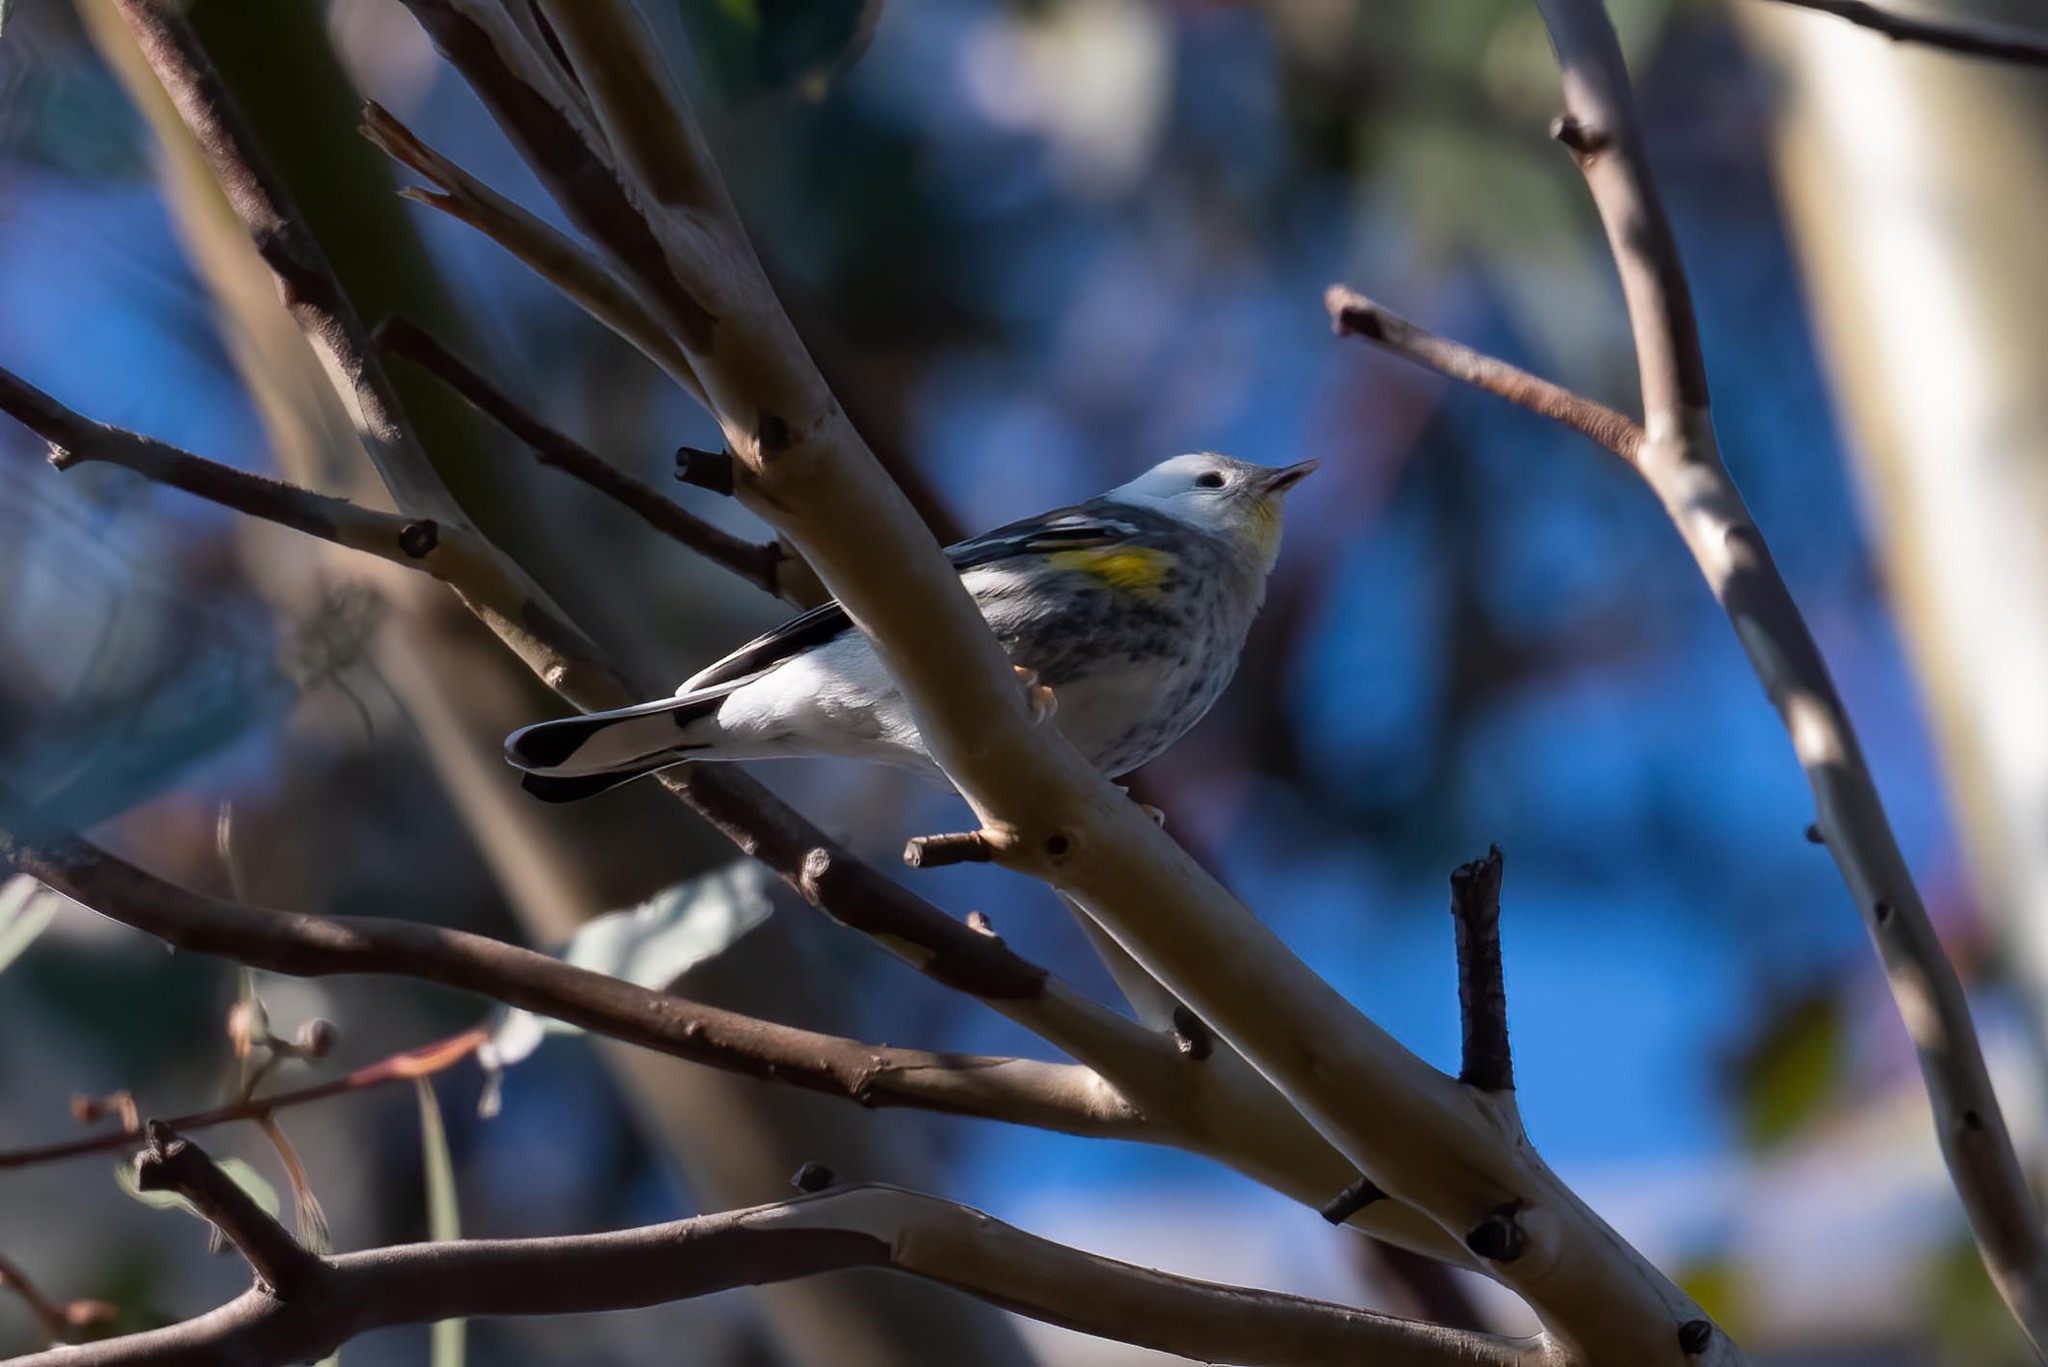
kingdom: Animalia
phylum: Chordata
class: Aves
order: Passeriformes
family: Parulidae
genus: Setophaga
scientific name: Setophaga auduboni
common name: Audubon's warbler
